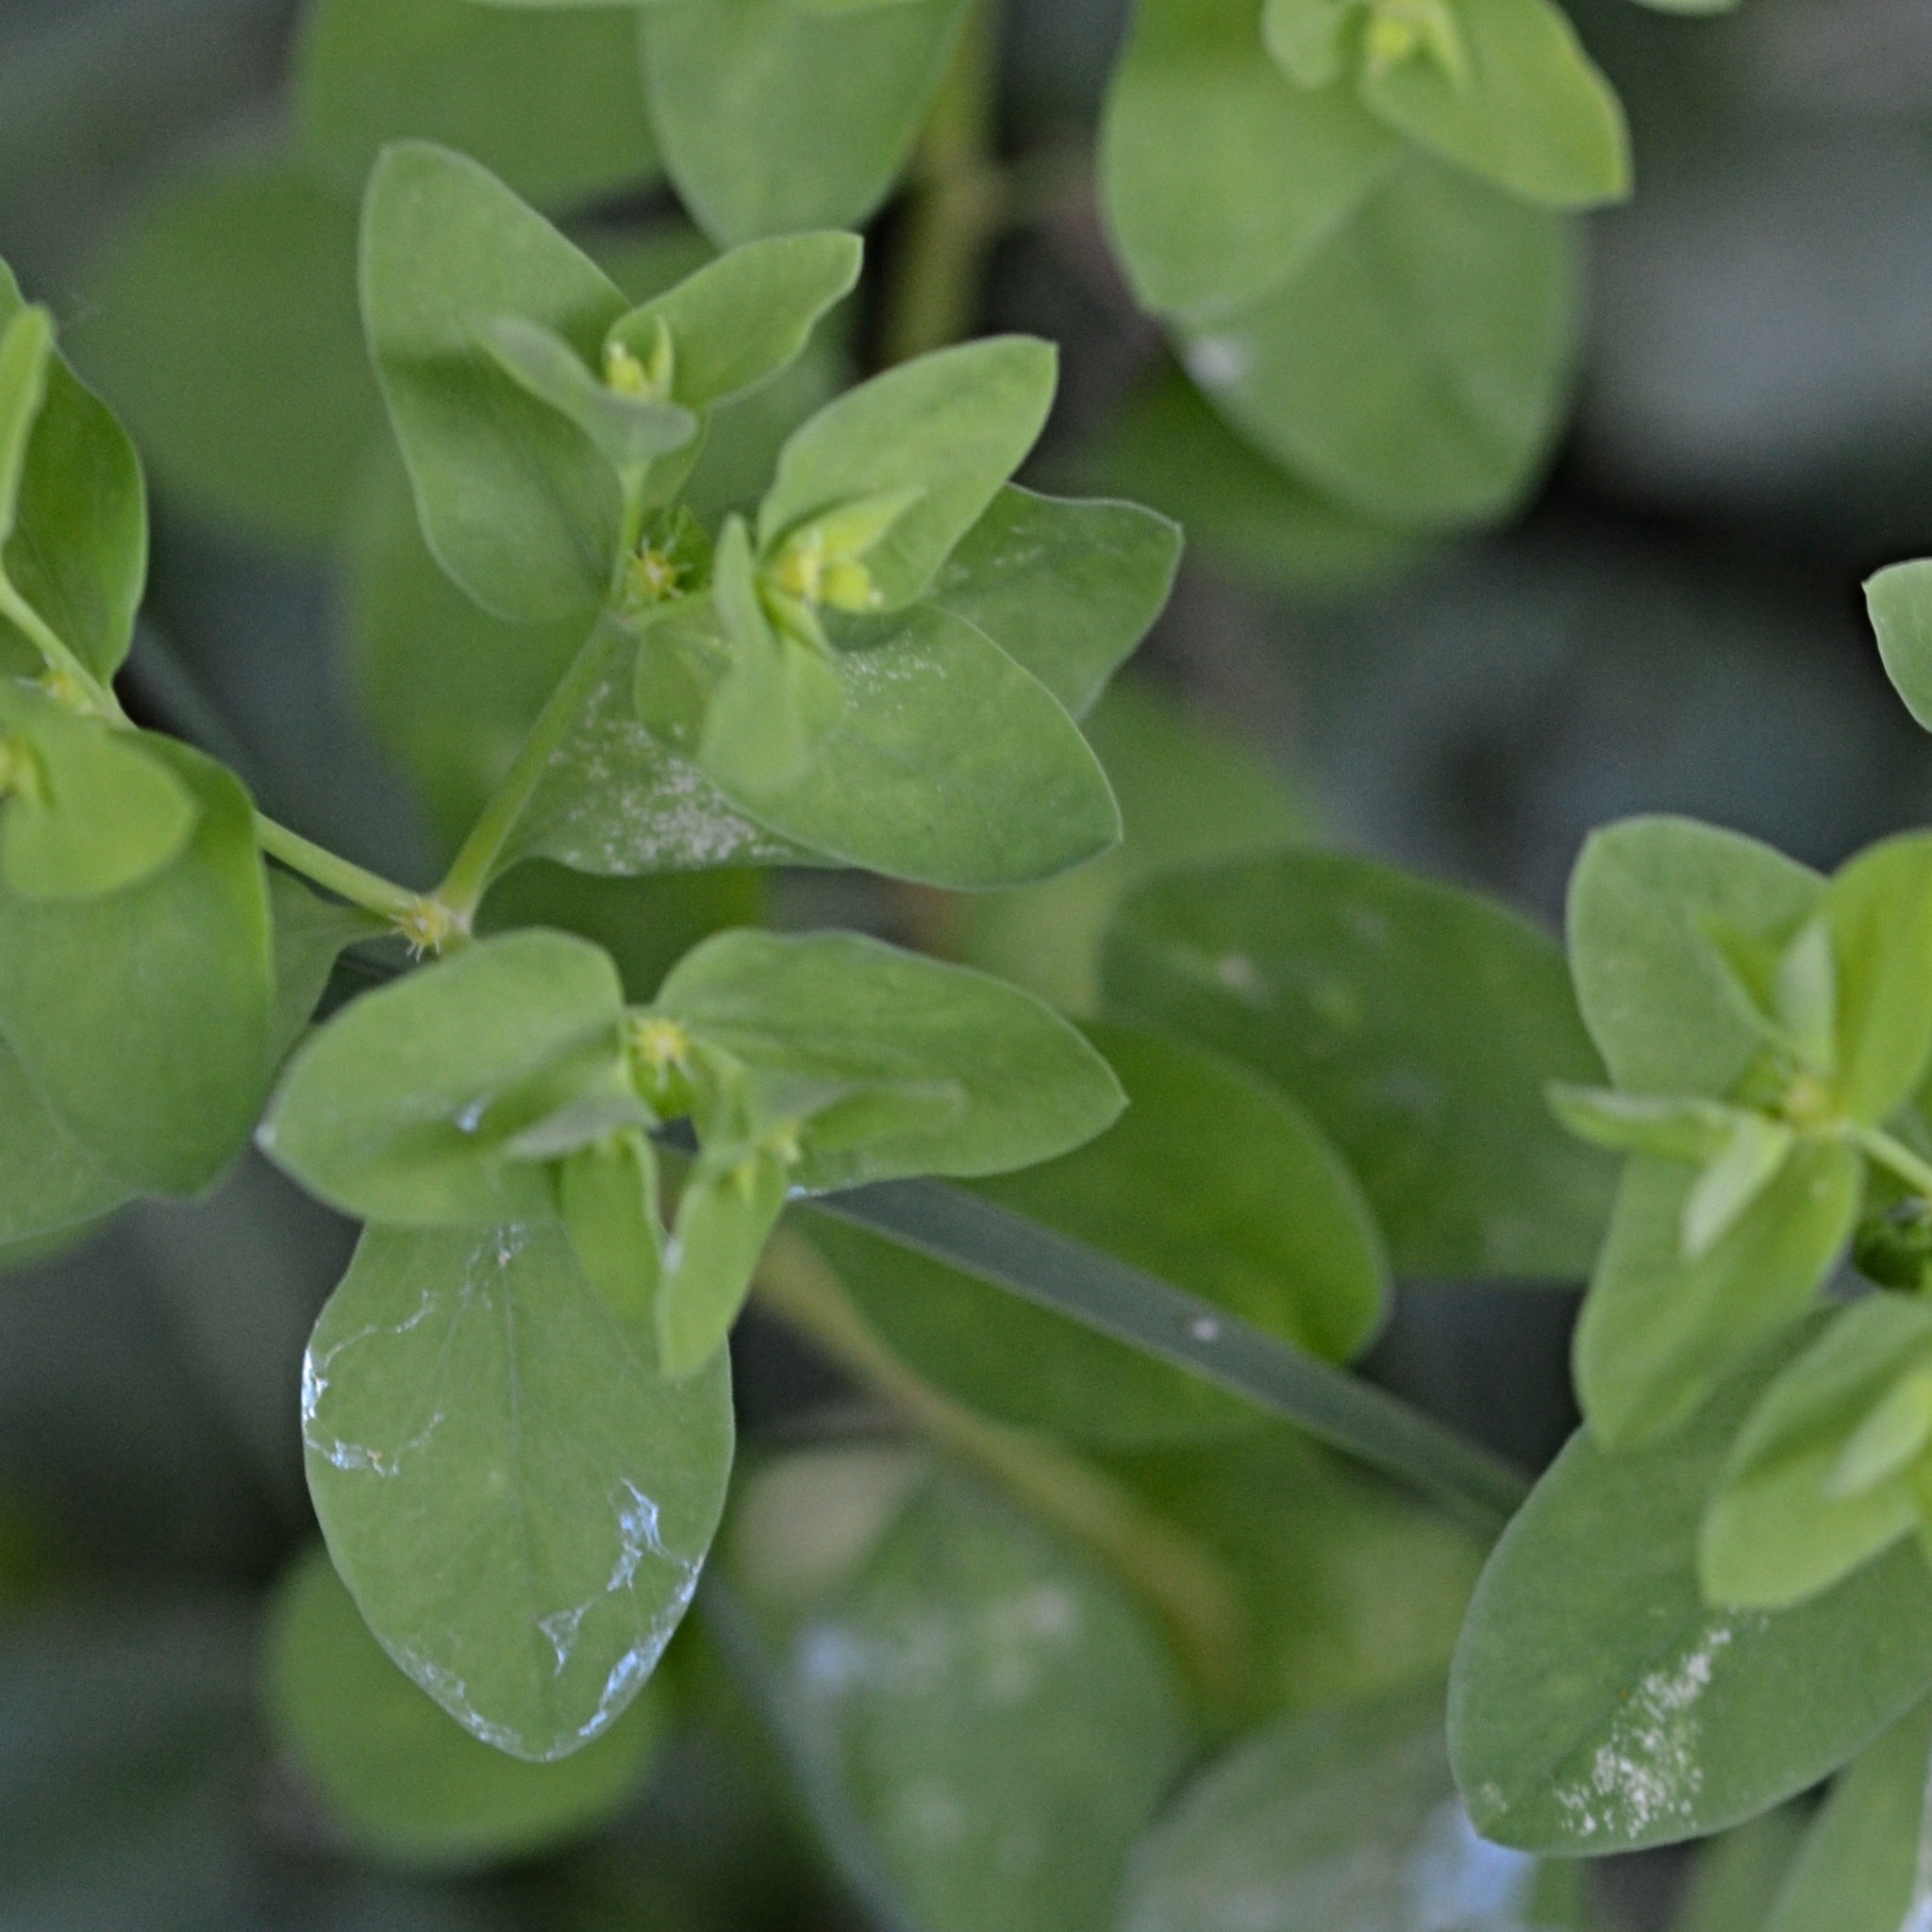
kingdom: Plantae
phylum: Tracheophyta
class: Magnoliopsida
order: Malpighiales
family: Euphorbiaceae
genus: Euphorbia
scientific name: Euphorbia peplus
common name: Petty spurge
